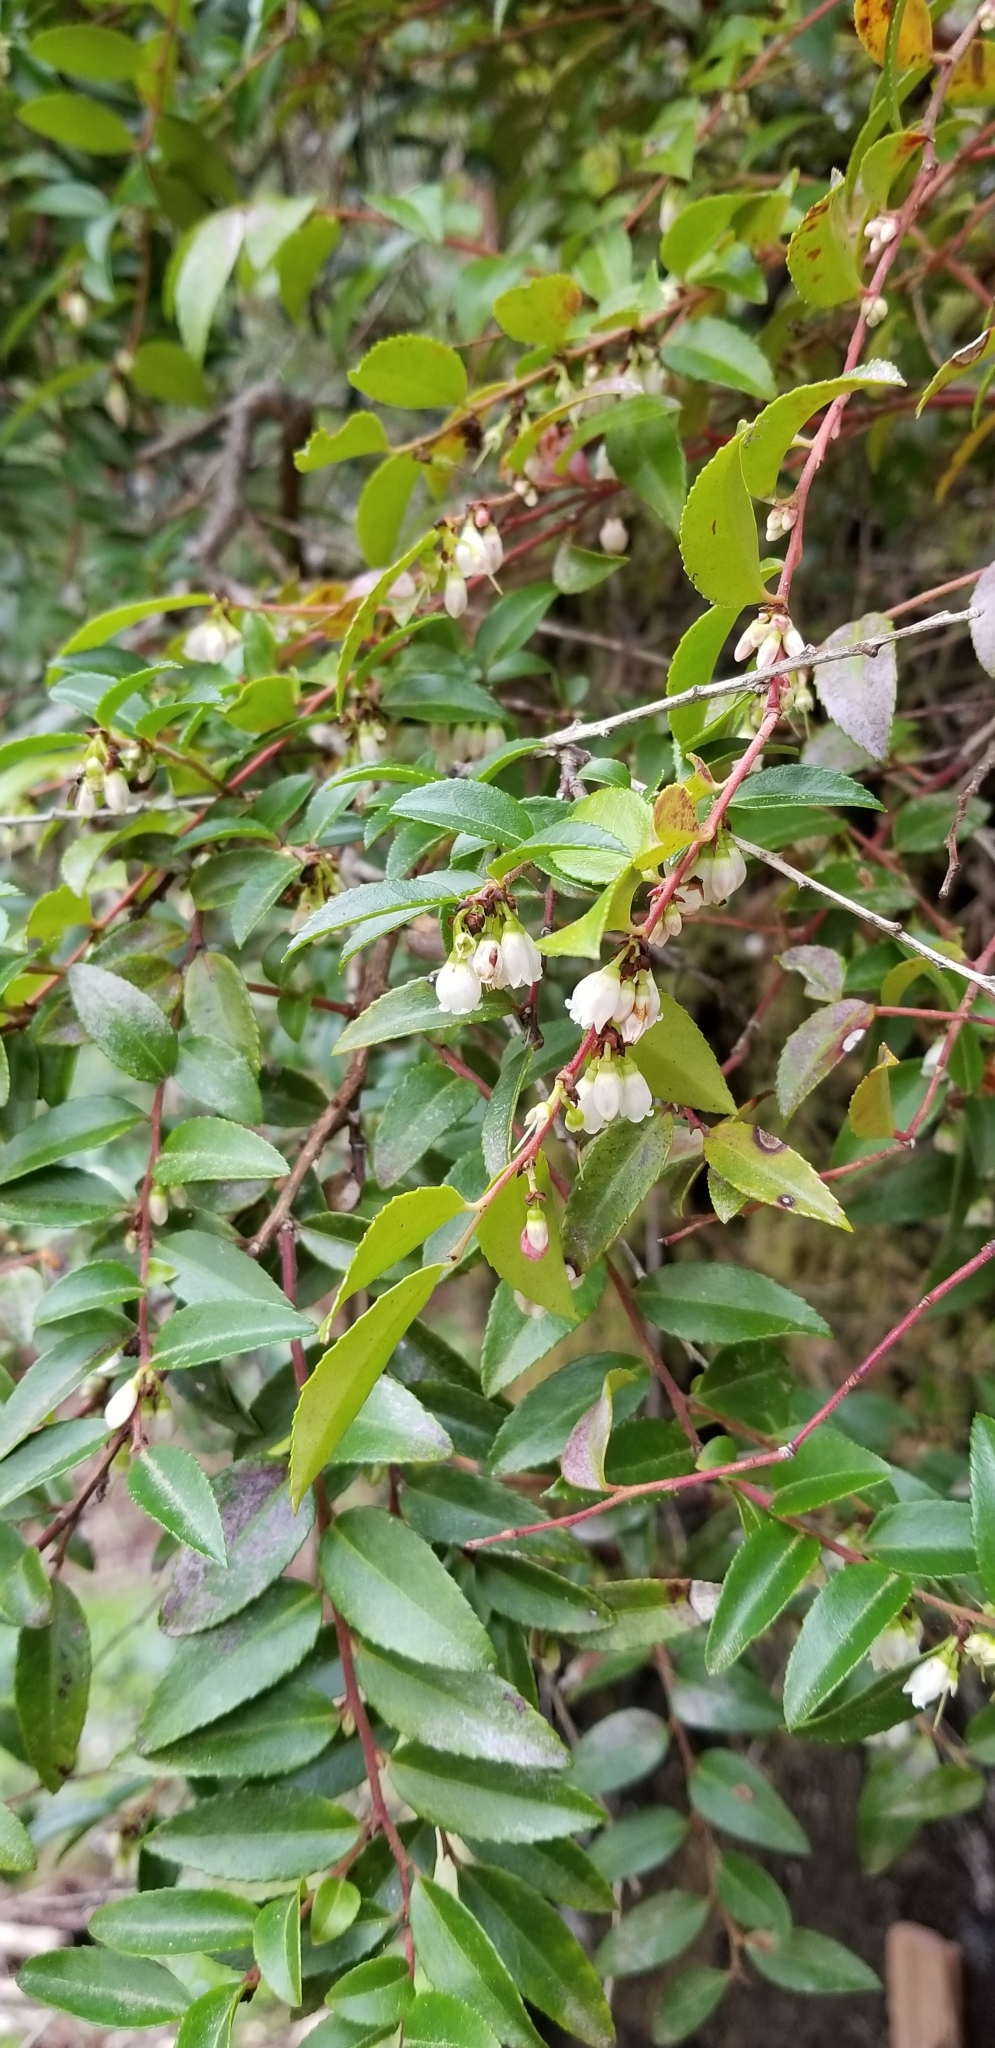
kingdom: Plantae
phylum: Tracheophyta
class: Magnoliopsida
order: Ericales
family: Ericaceae
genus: Vaccinium
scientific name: Vaccinium ovatum
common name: California-huckleberry
